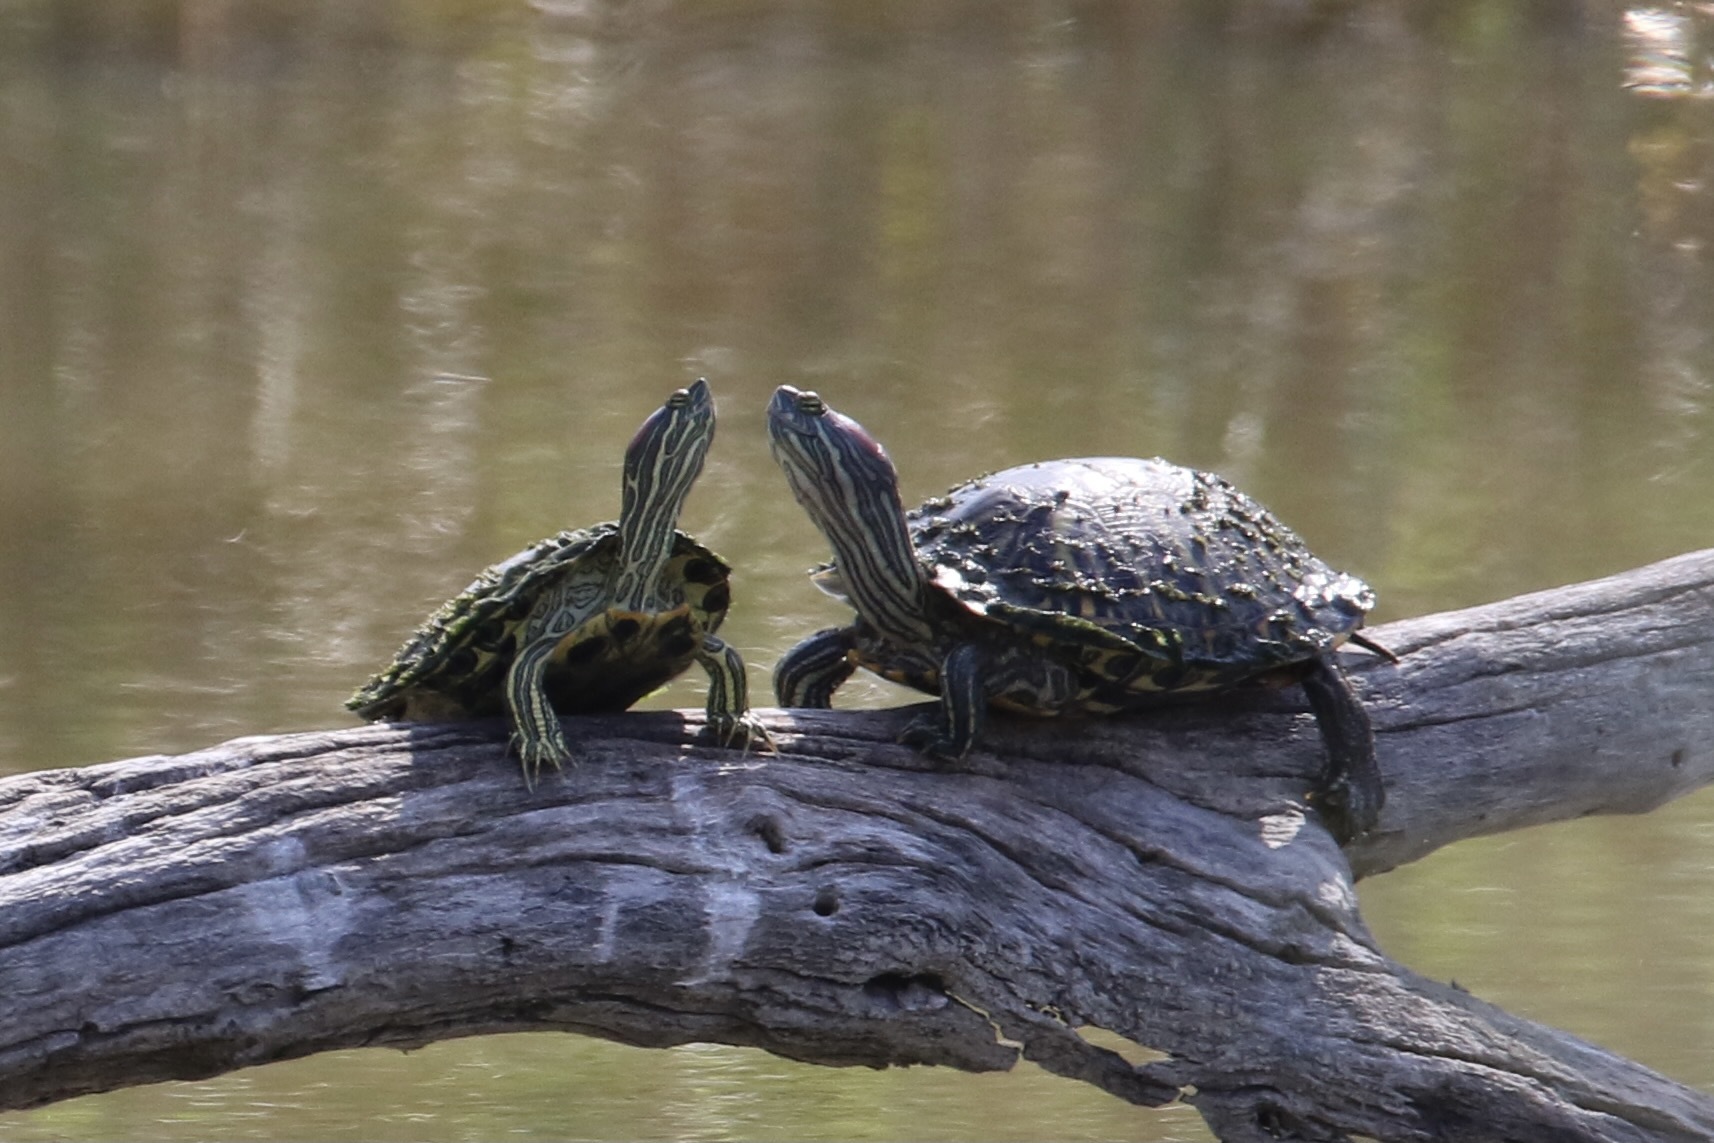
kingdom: Animalia
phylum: Chordata
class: Testudines
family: Emydidae
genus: Trachemys
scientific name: Trachemys scripta
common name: Slider
